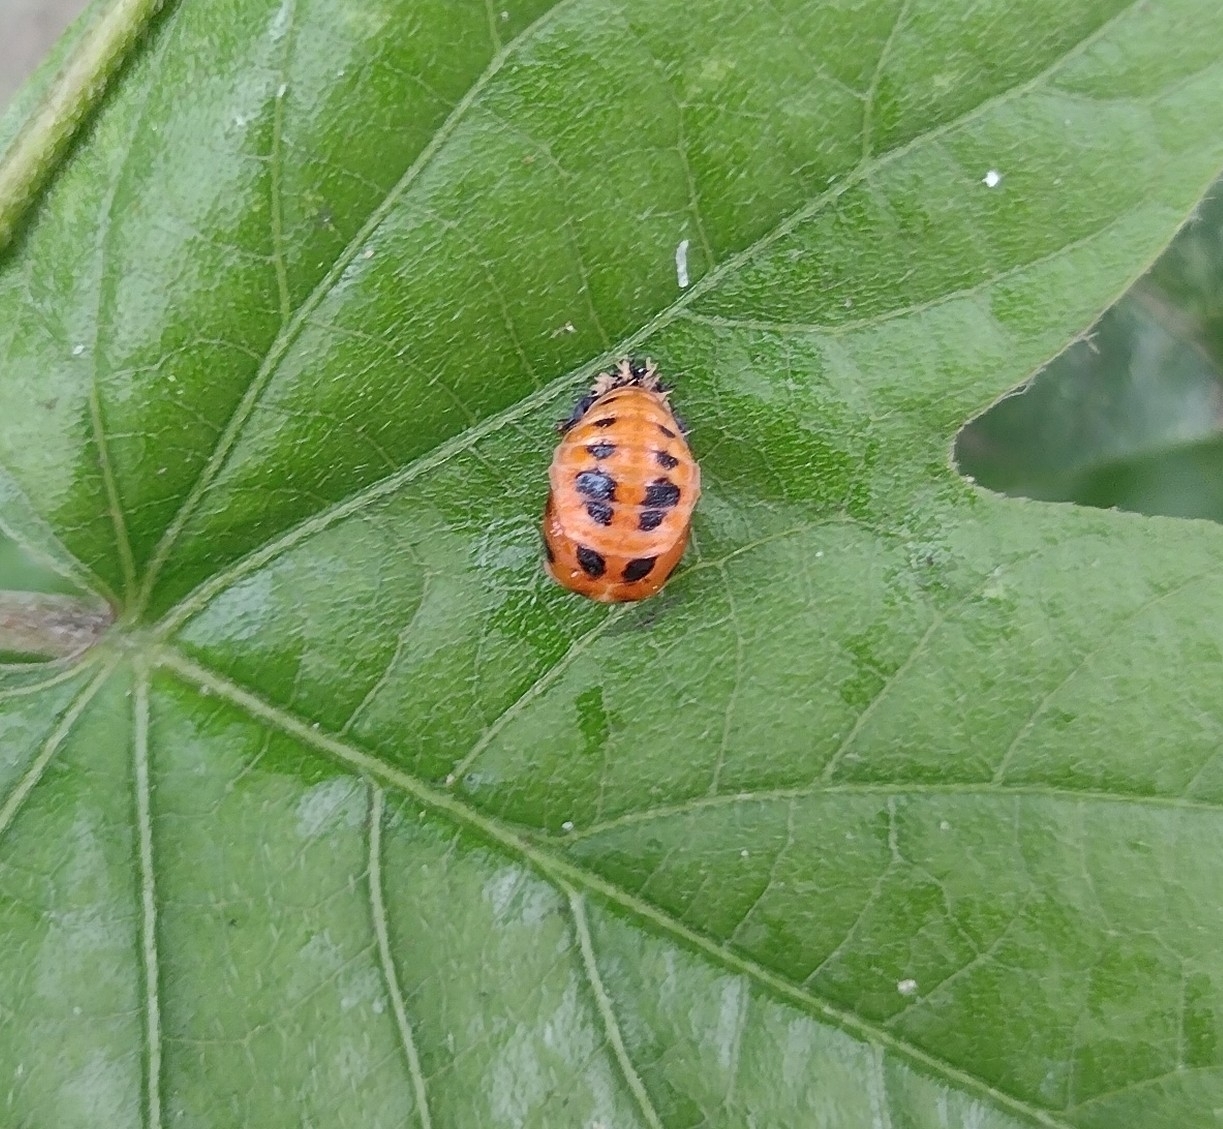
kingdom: Animalia
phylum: Arthropoda
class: Insecta
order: Coleoptera
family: Coccinellidae
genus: Harmonia
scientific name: Harmonia axyridis
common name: Harlequin ladybird
